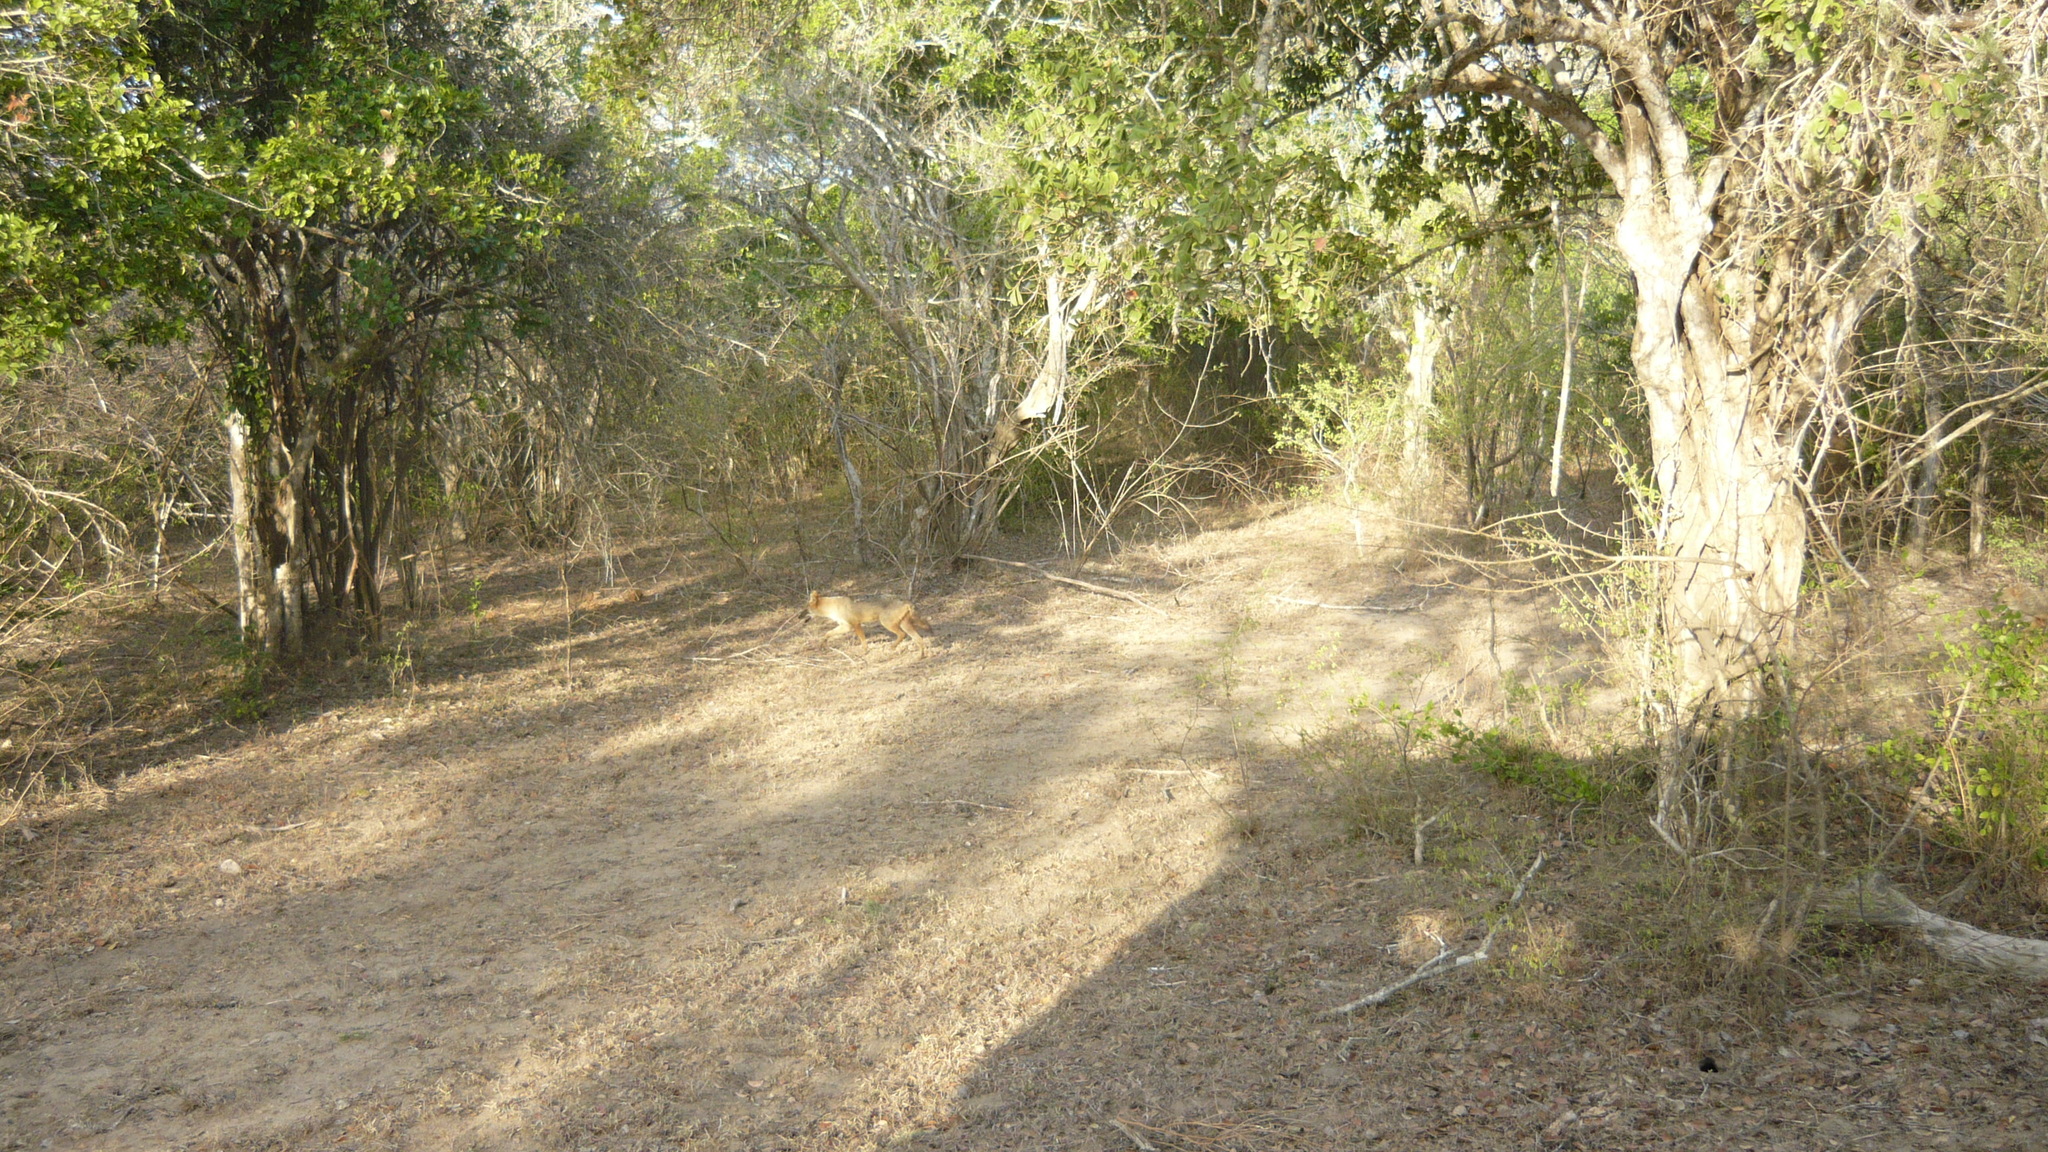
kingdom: Animalia
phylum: Chordata
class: Mammalia
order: Carnivora
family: Canidae
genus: Canis
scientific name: Canis aureus
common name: Golden jackal
